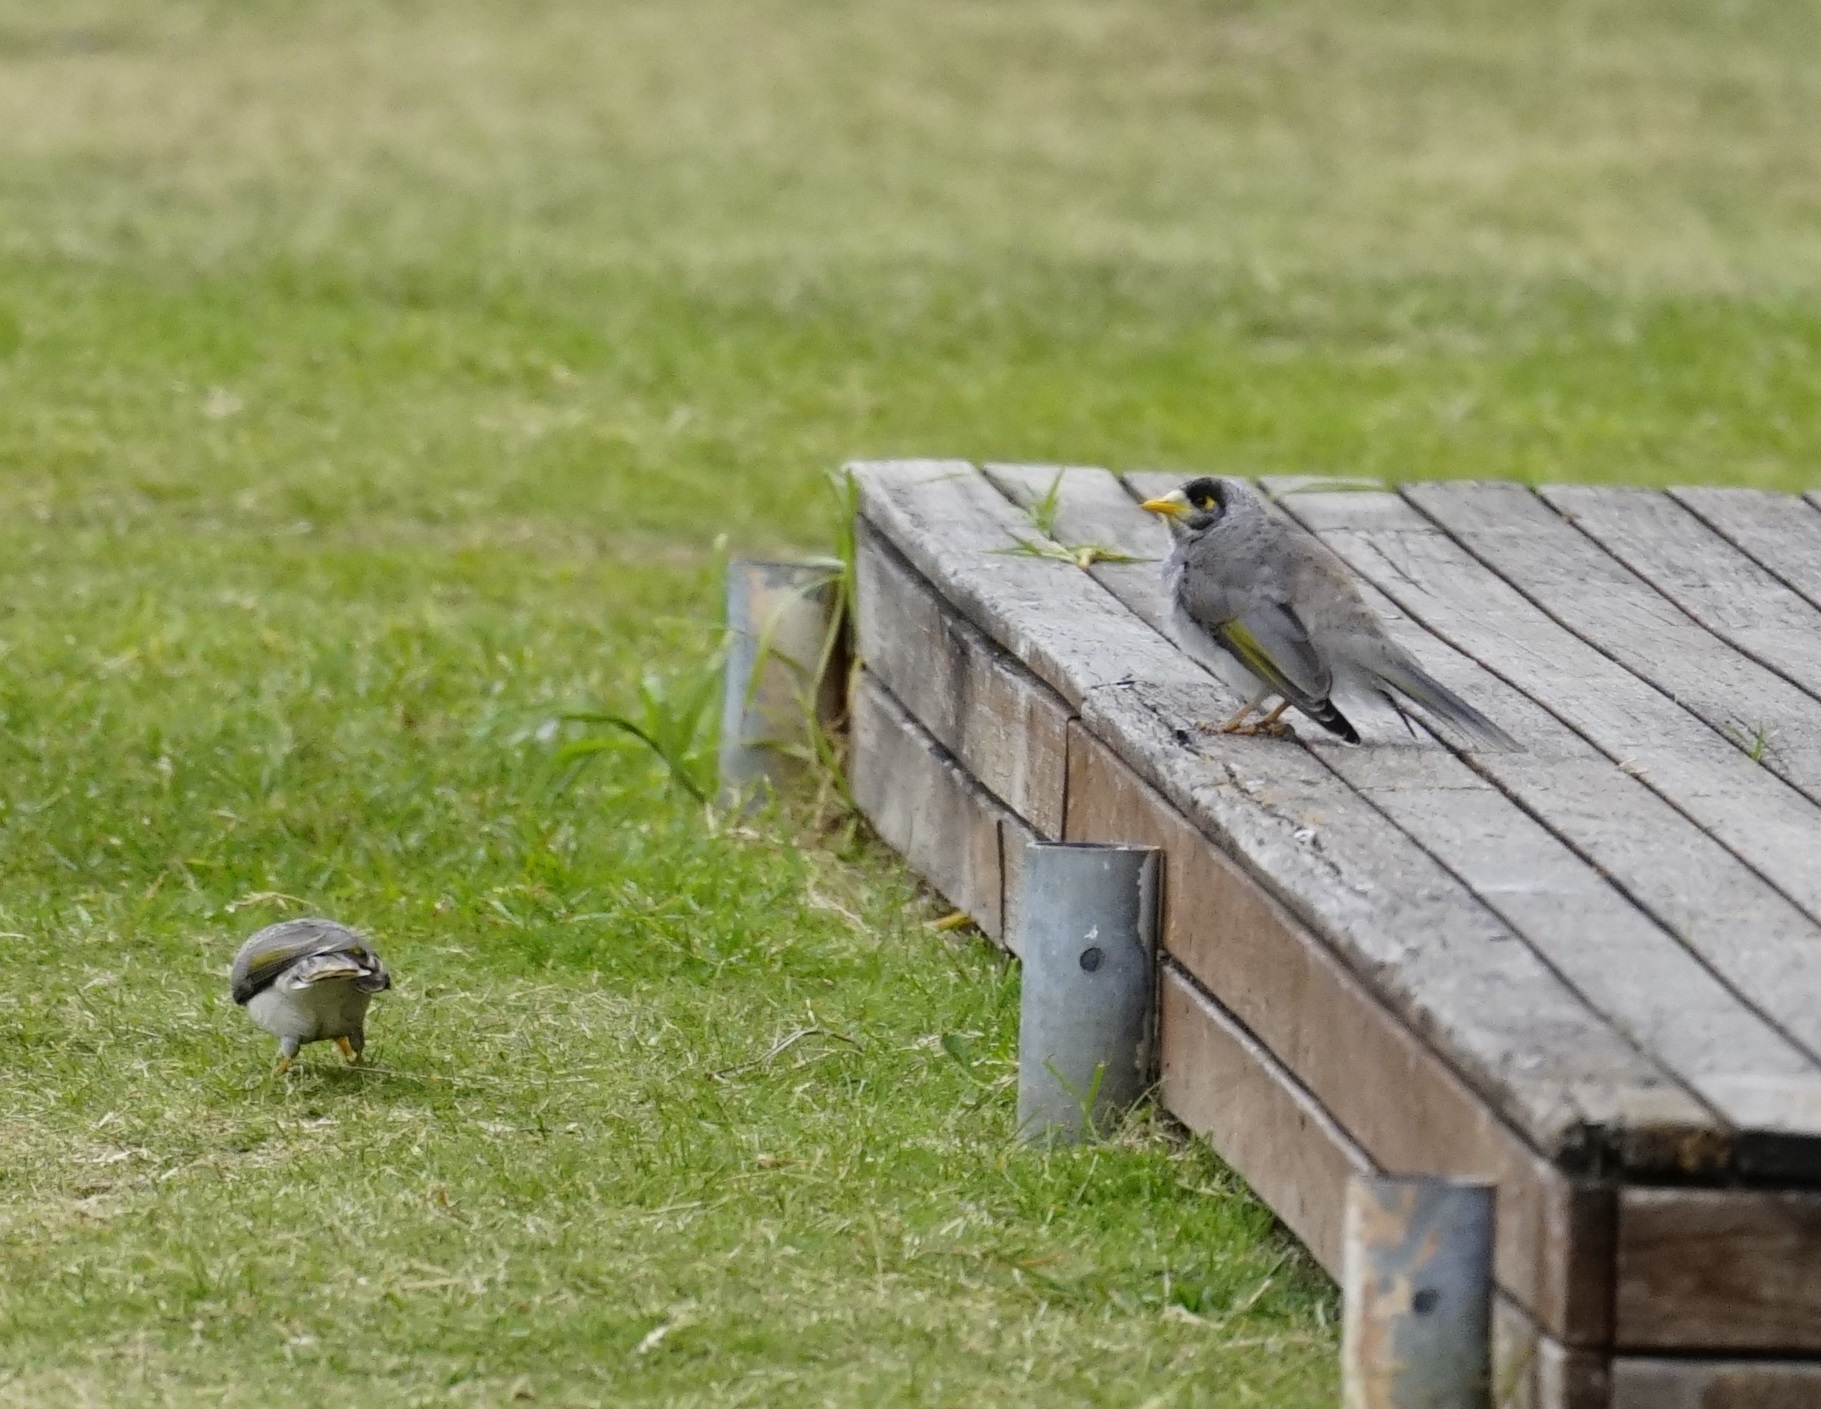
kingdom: Animalia
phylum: Chordata
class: Aves
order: Passeriformes
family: Meliphagidae
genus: Manorina
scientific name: Manorina melanocephala
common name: Noisy miner
